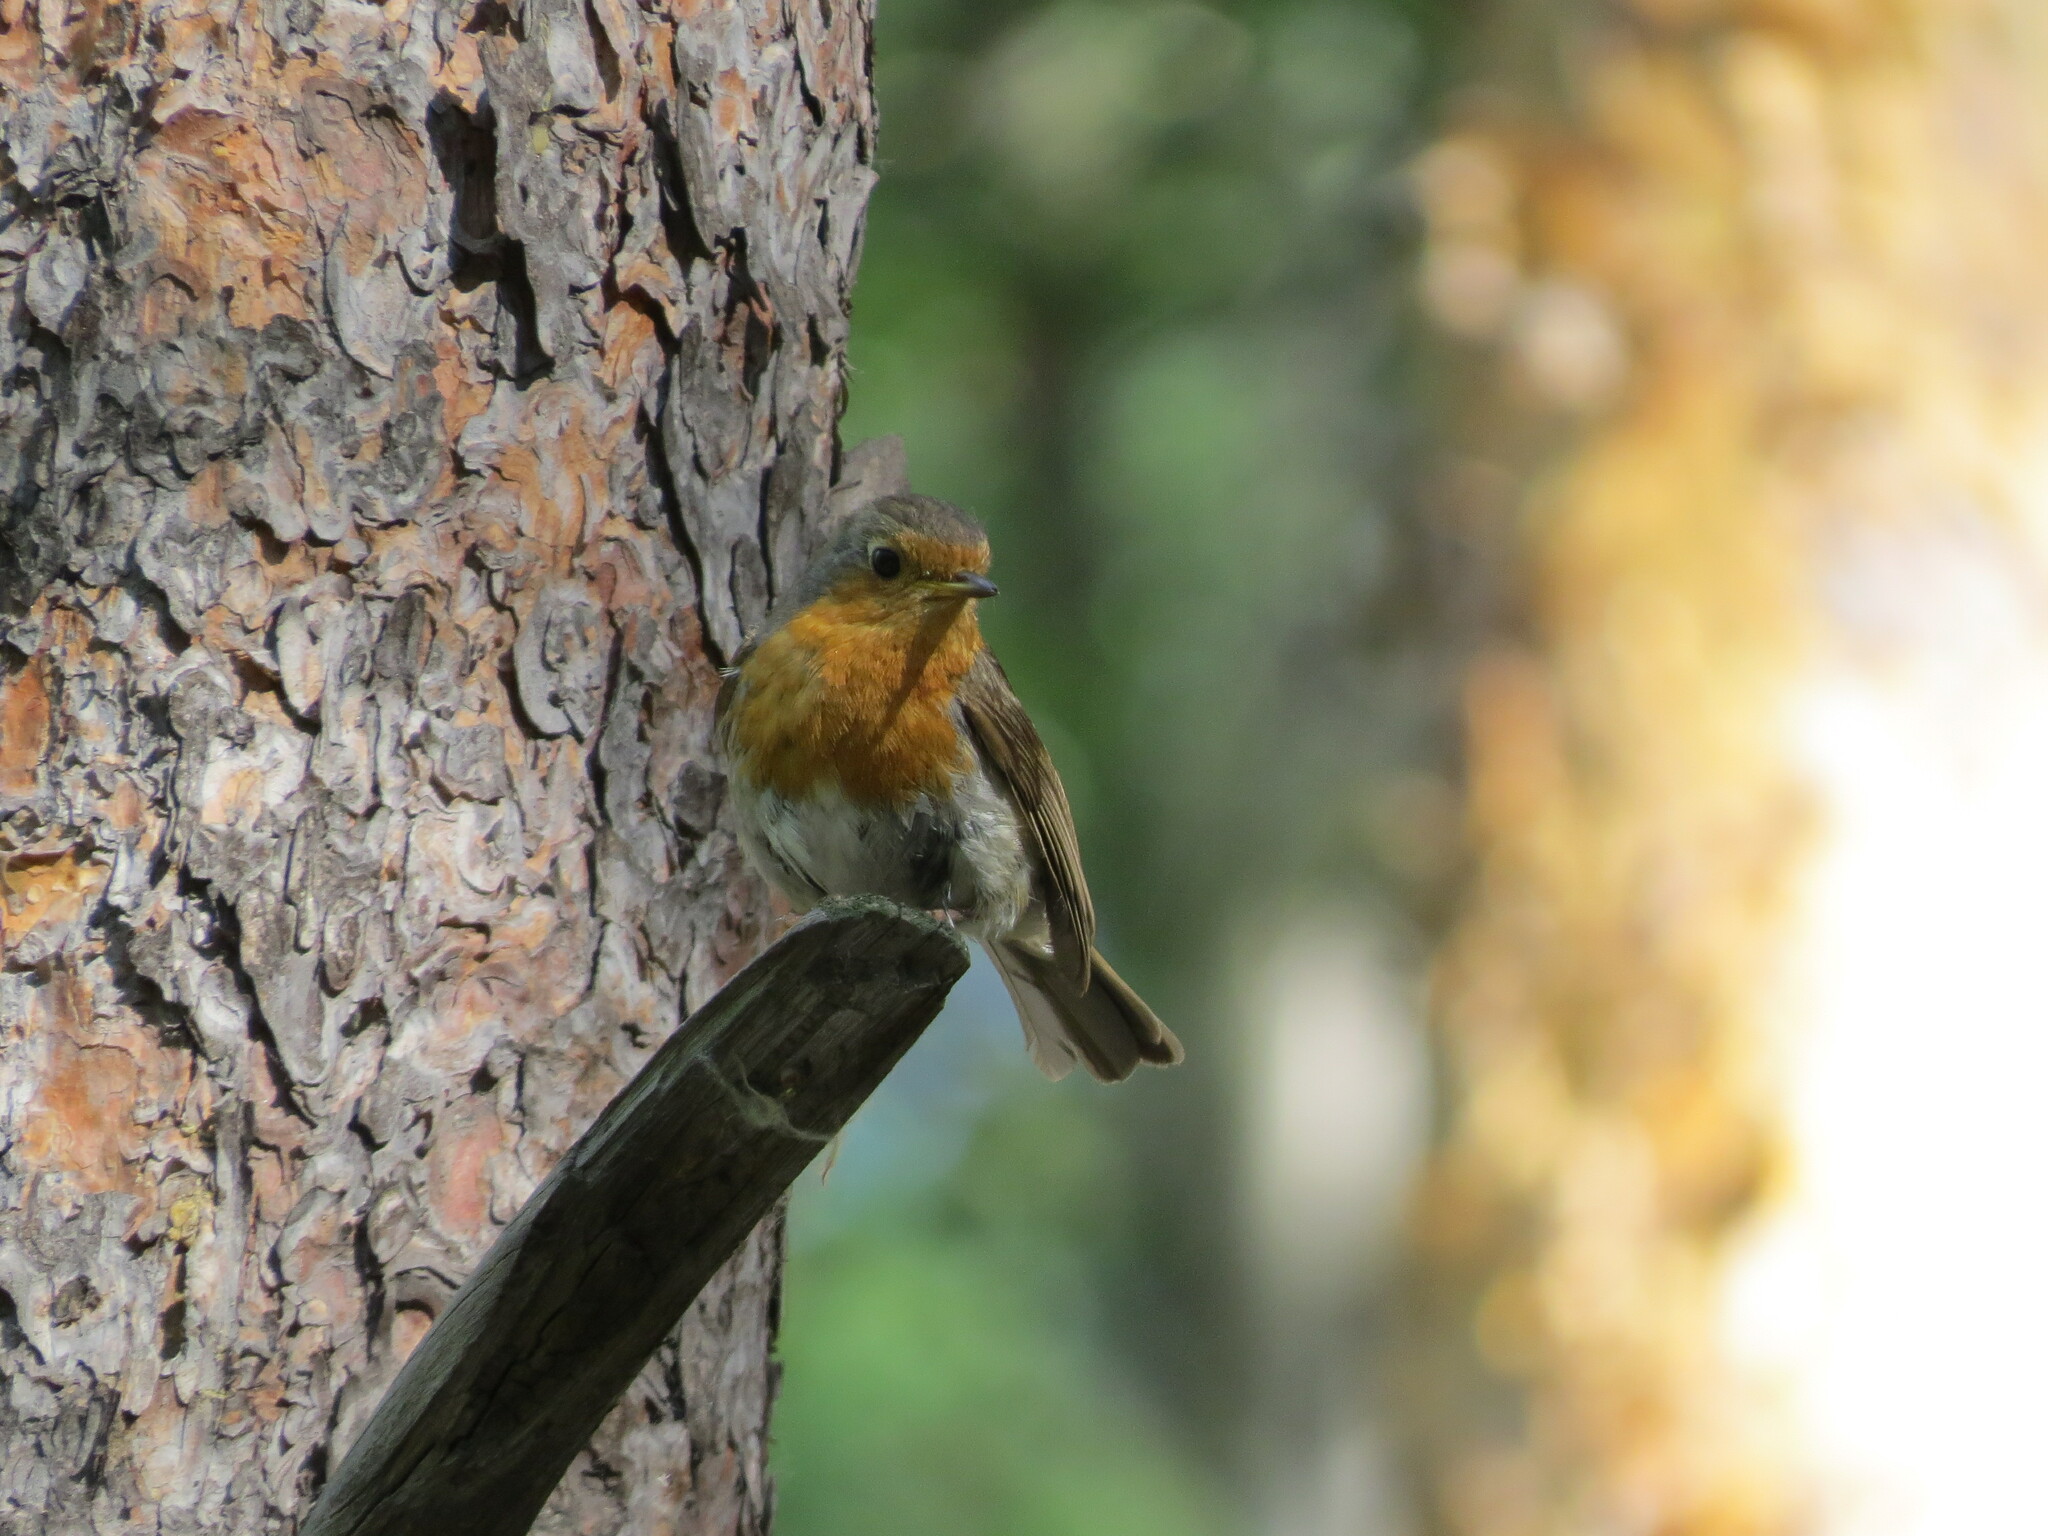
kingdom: Animalia
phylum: Chordata
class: Aves
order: Passeriformes
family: Muscicapidae
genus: Erithacus
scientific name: Erithacus rubecula
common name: European robin
